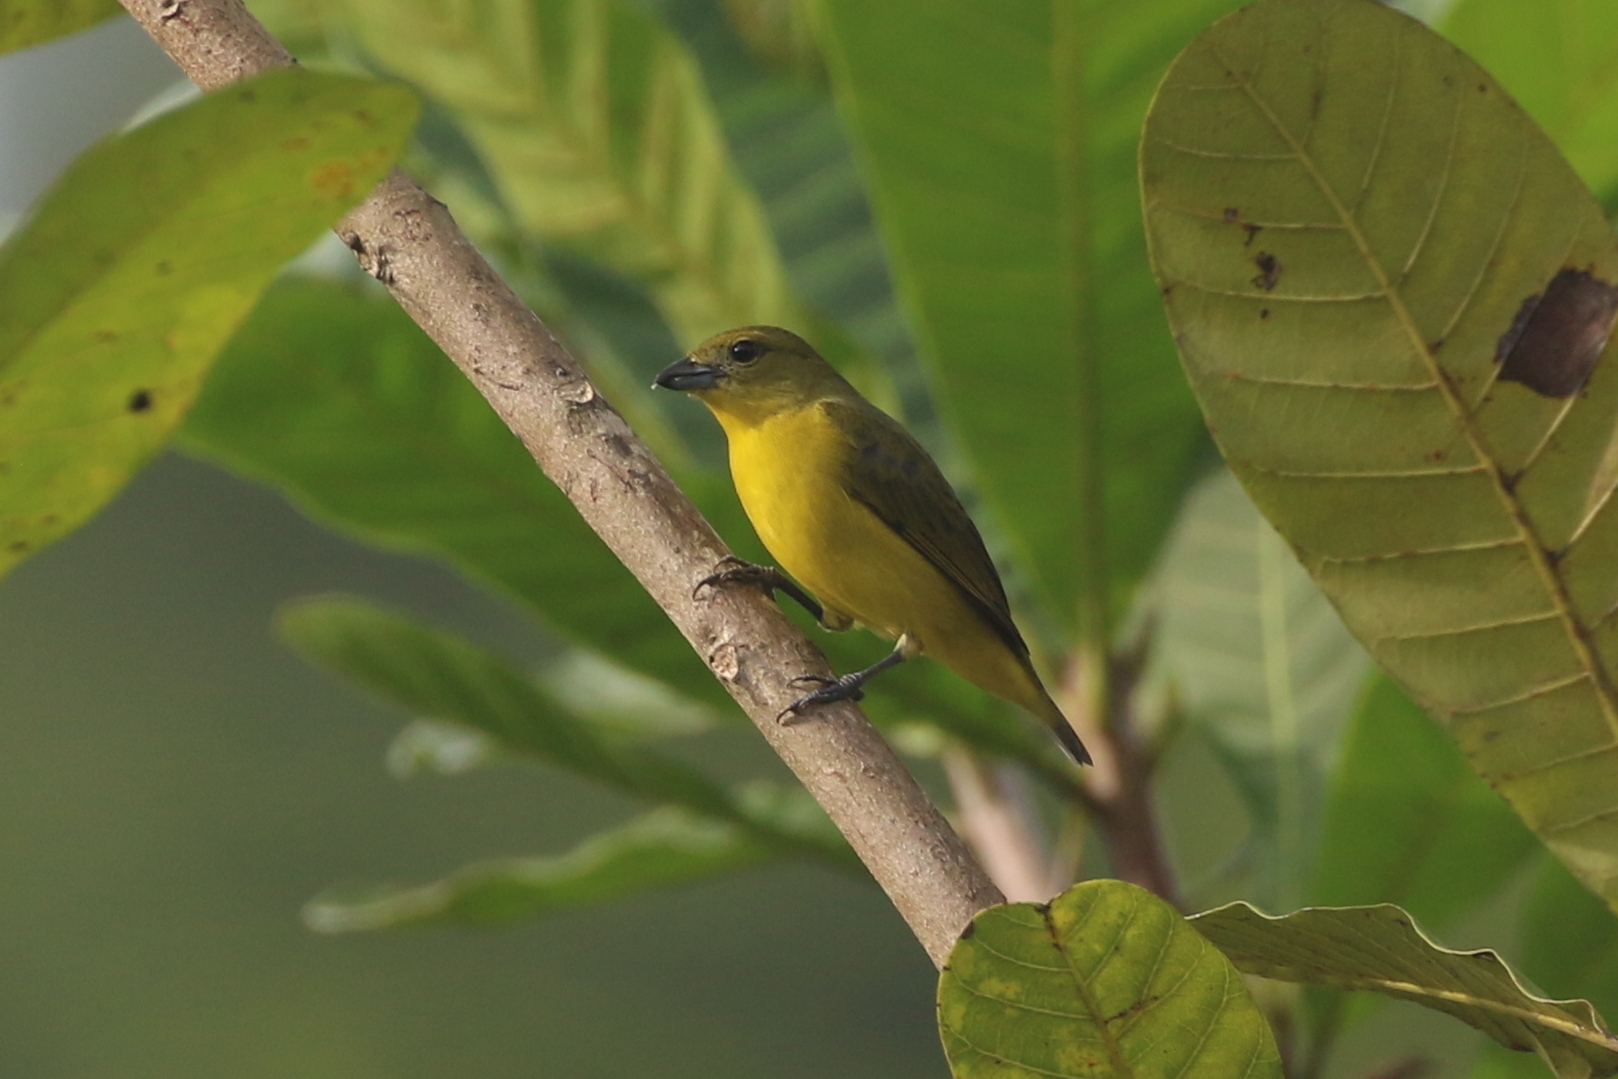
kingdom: Animalia
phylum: Chordata
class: Aves
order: Passeriformes
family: Fringillidae
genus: Euphonia
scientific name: Euphonia laniirostris
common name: Thick-billed euphonia
